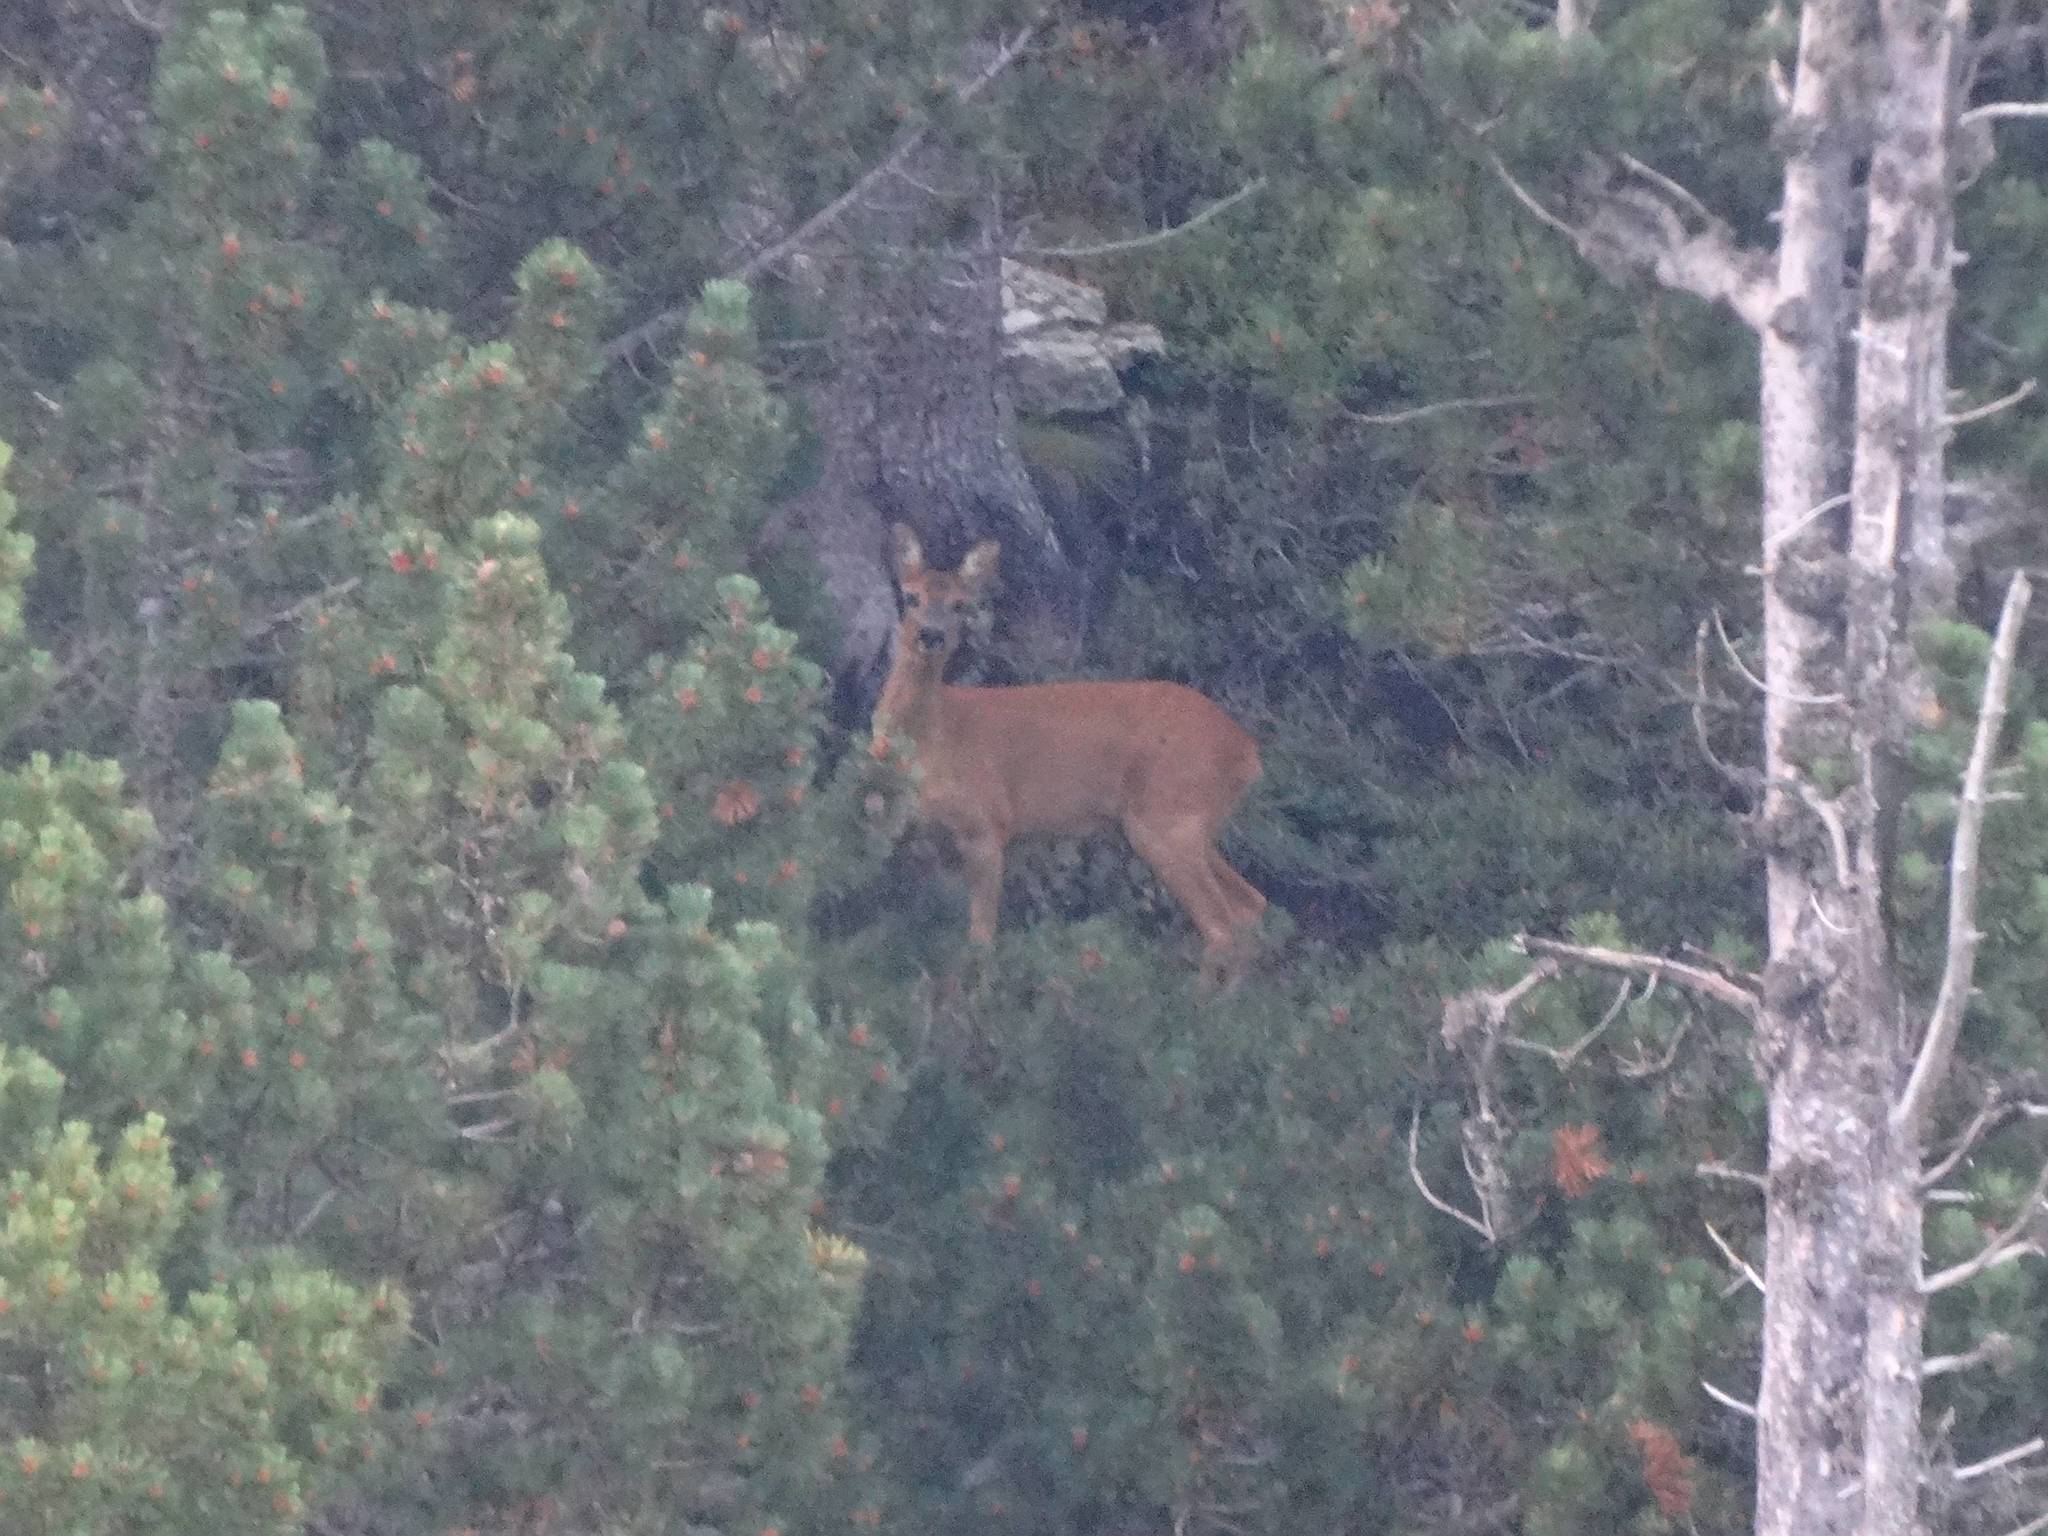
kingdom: Animalia
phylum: Chordata
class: Mammalia
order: Artiodactyla
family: Cervidae
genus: Capreolus
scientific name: Capreolus capreolus
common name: Western roe deer
